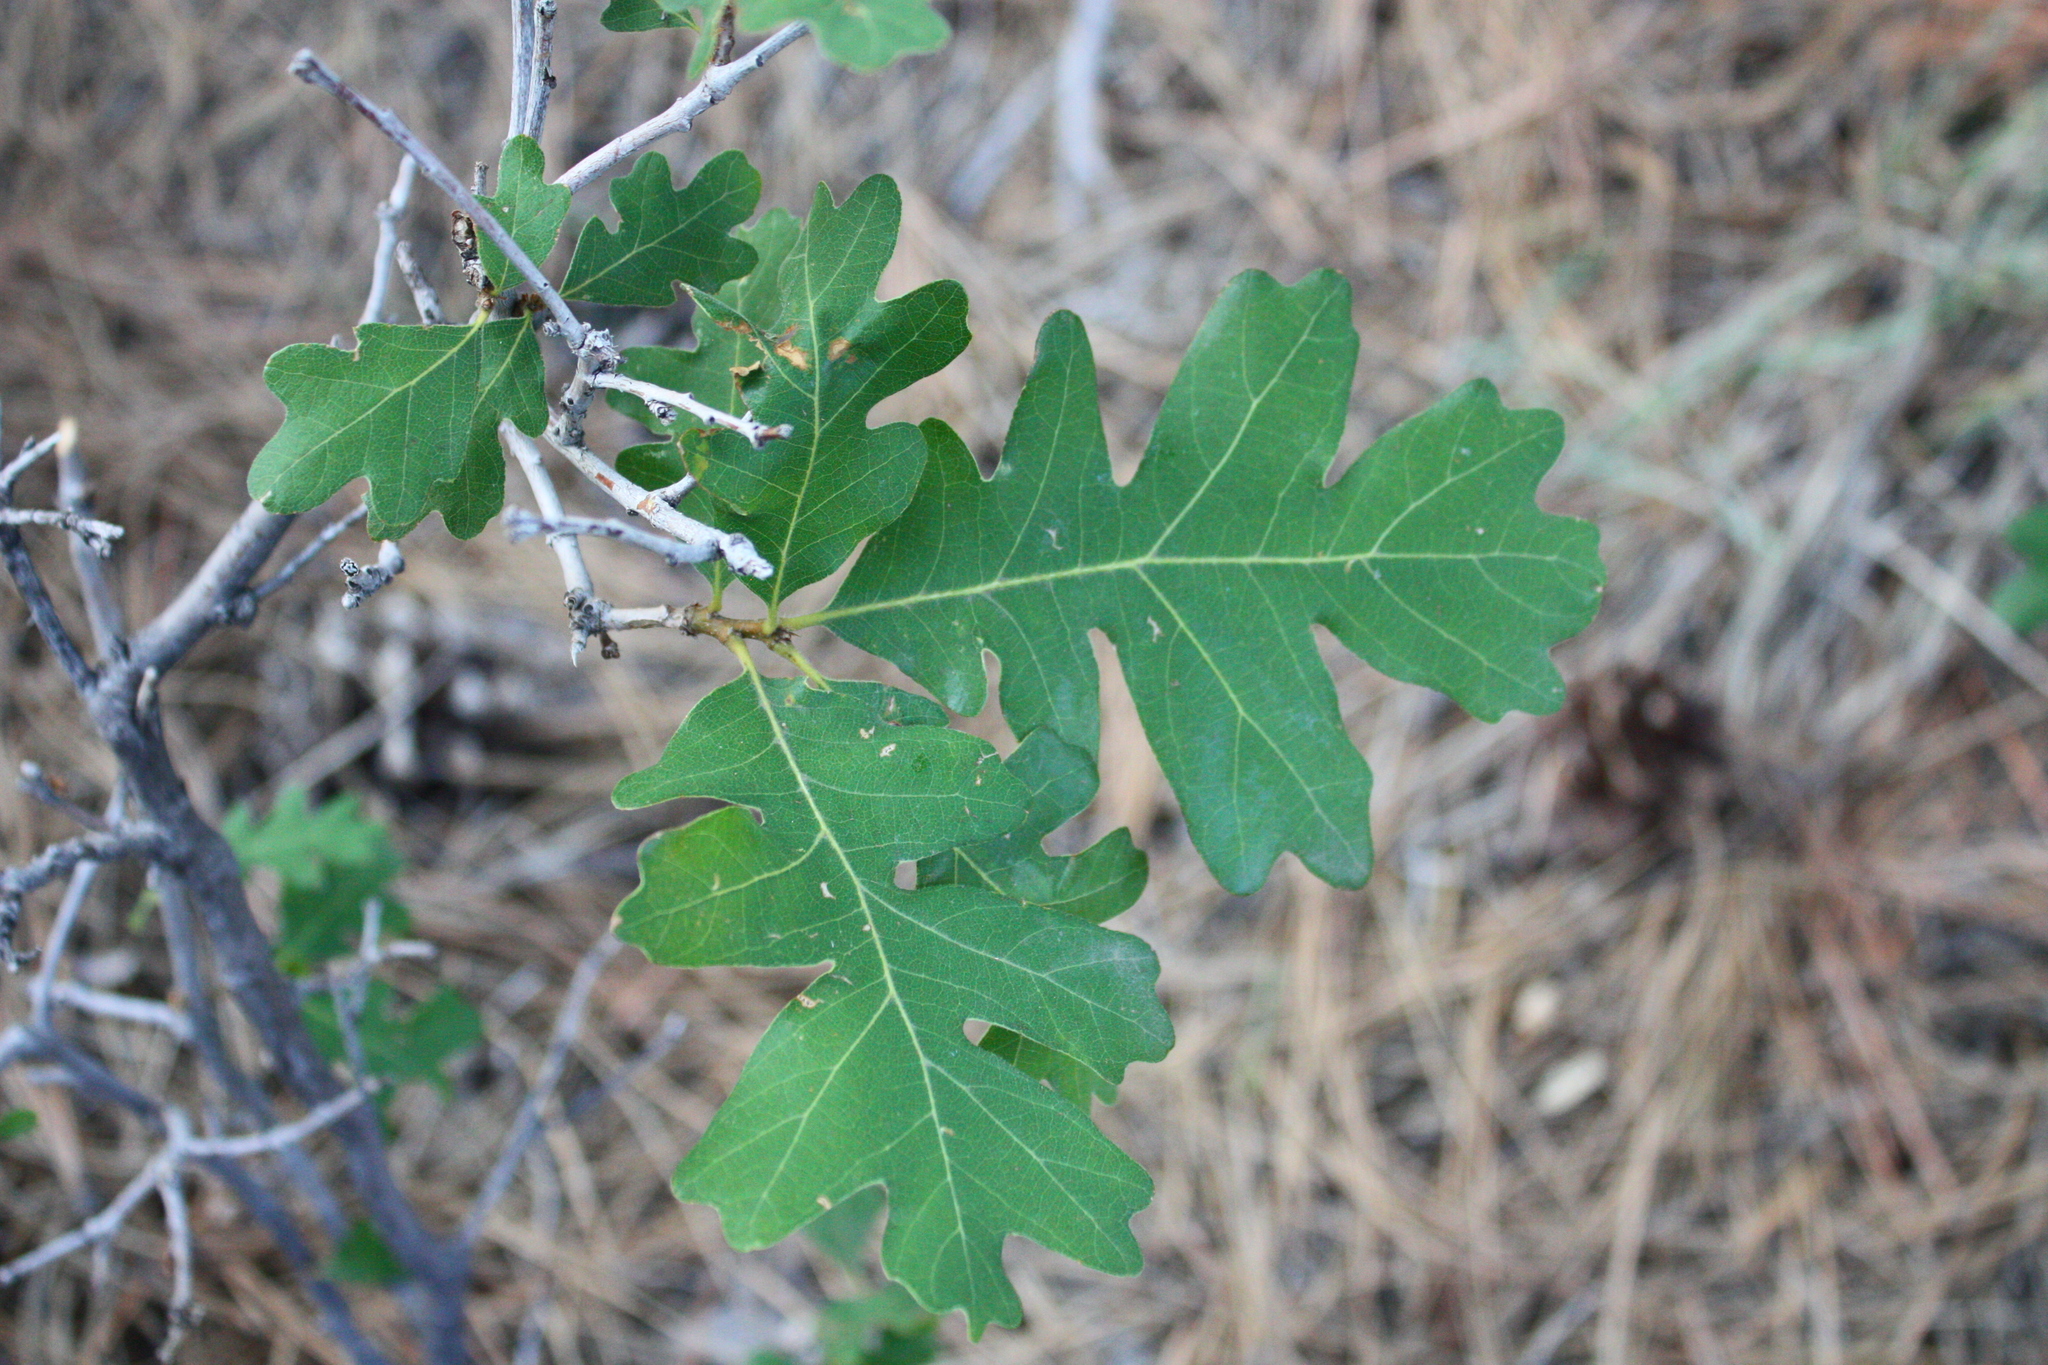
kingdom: Plantae
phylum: Tracheophyta
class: Magnoliopsida
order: Fagales
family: Fagaceae
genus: Quercus
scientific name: Quercus gambelii
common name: Gambel oak
